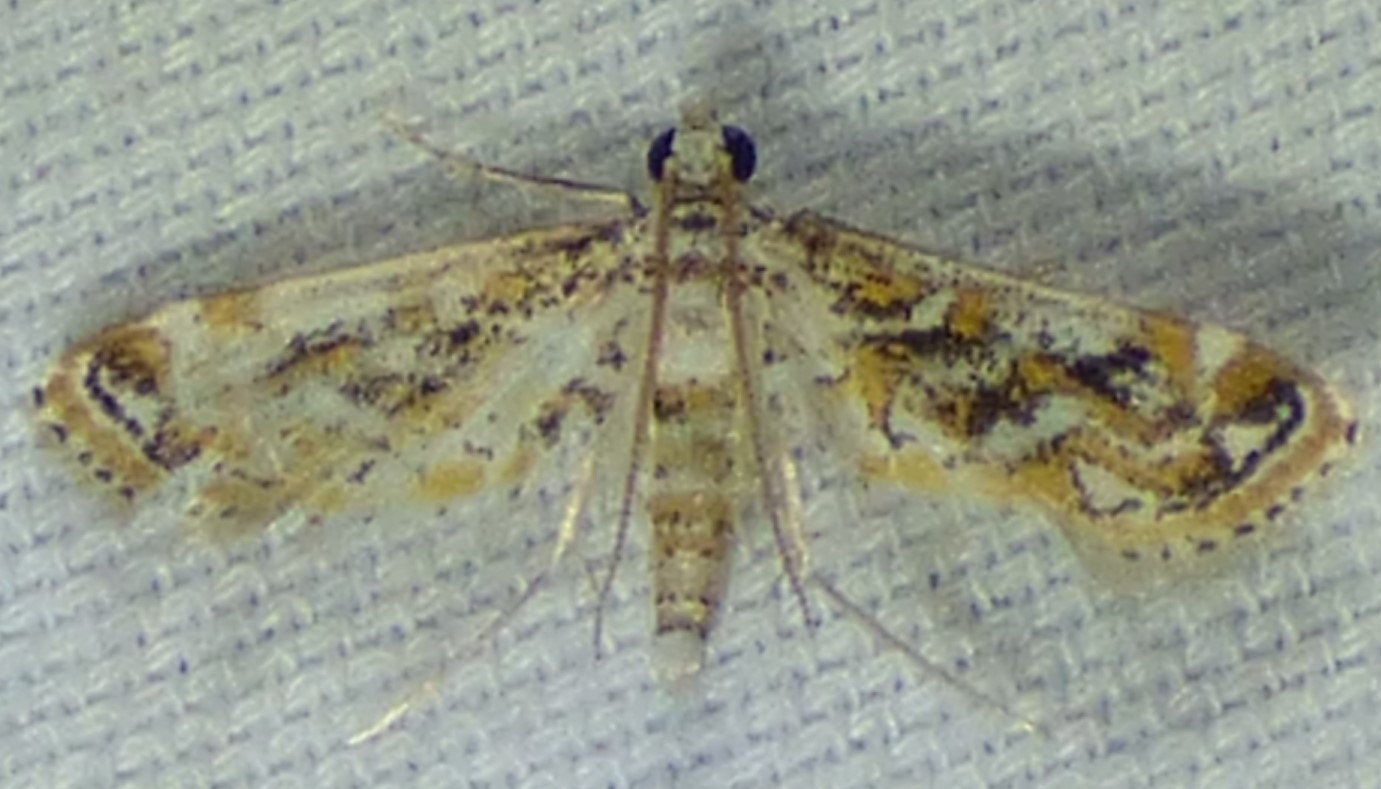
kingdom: Animalia
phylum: Arthropoda
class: Insecta
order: Lepidoptera
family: Crambidae
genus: Parapoynx
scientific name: Parapoynx diminutalis
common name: Hydrilla leafcutter
